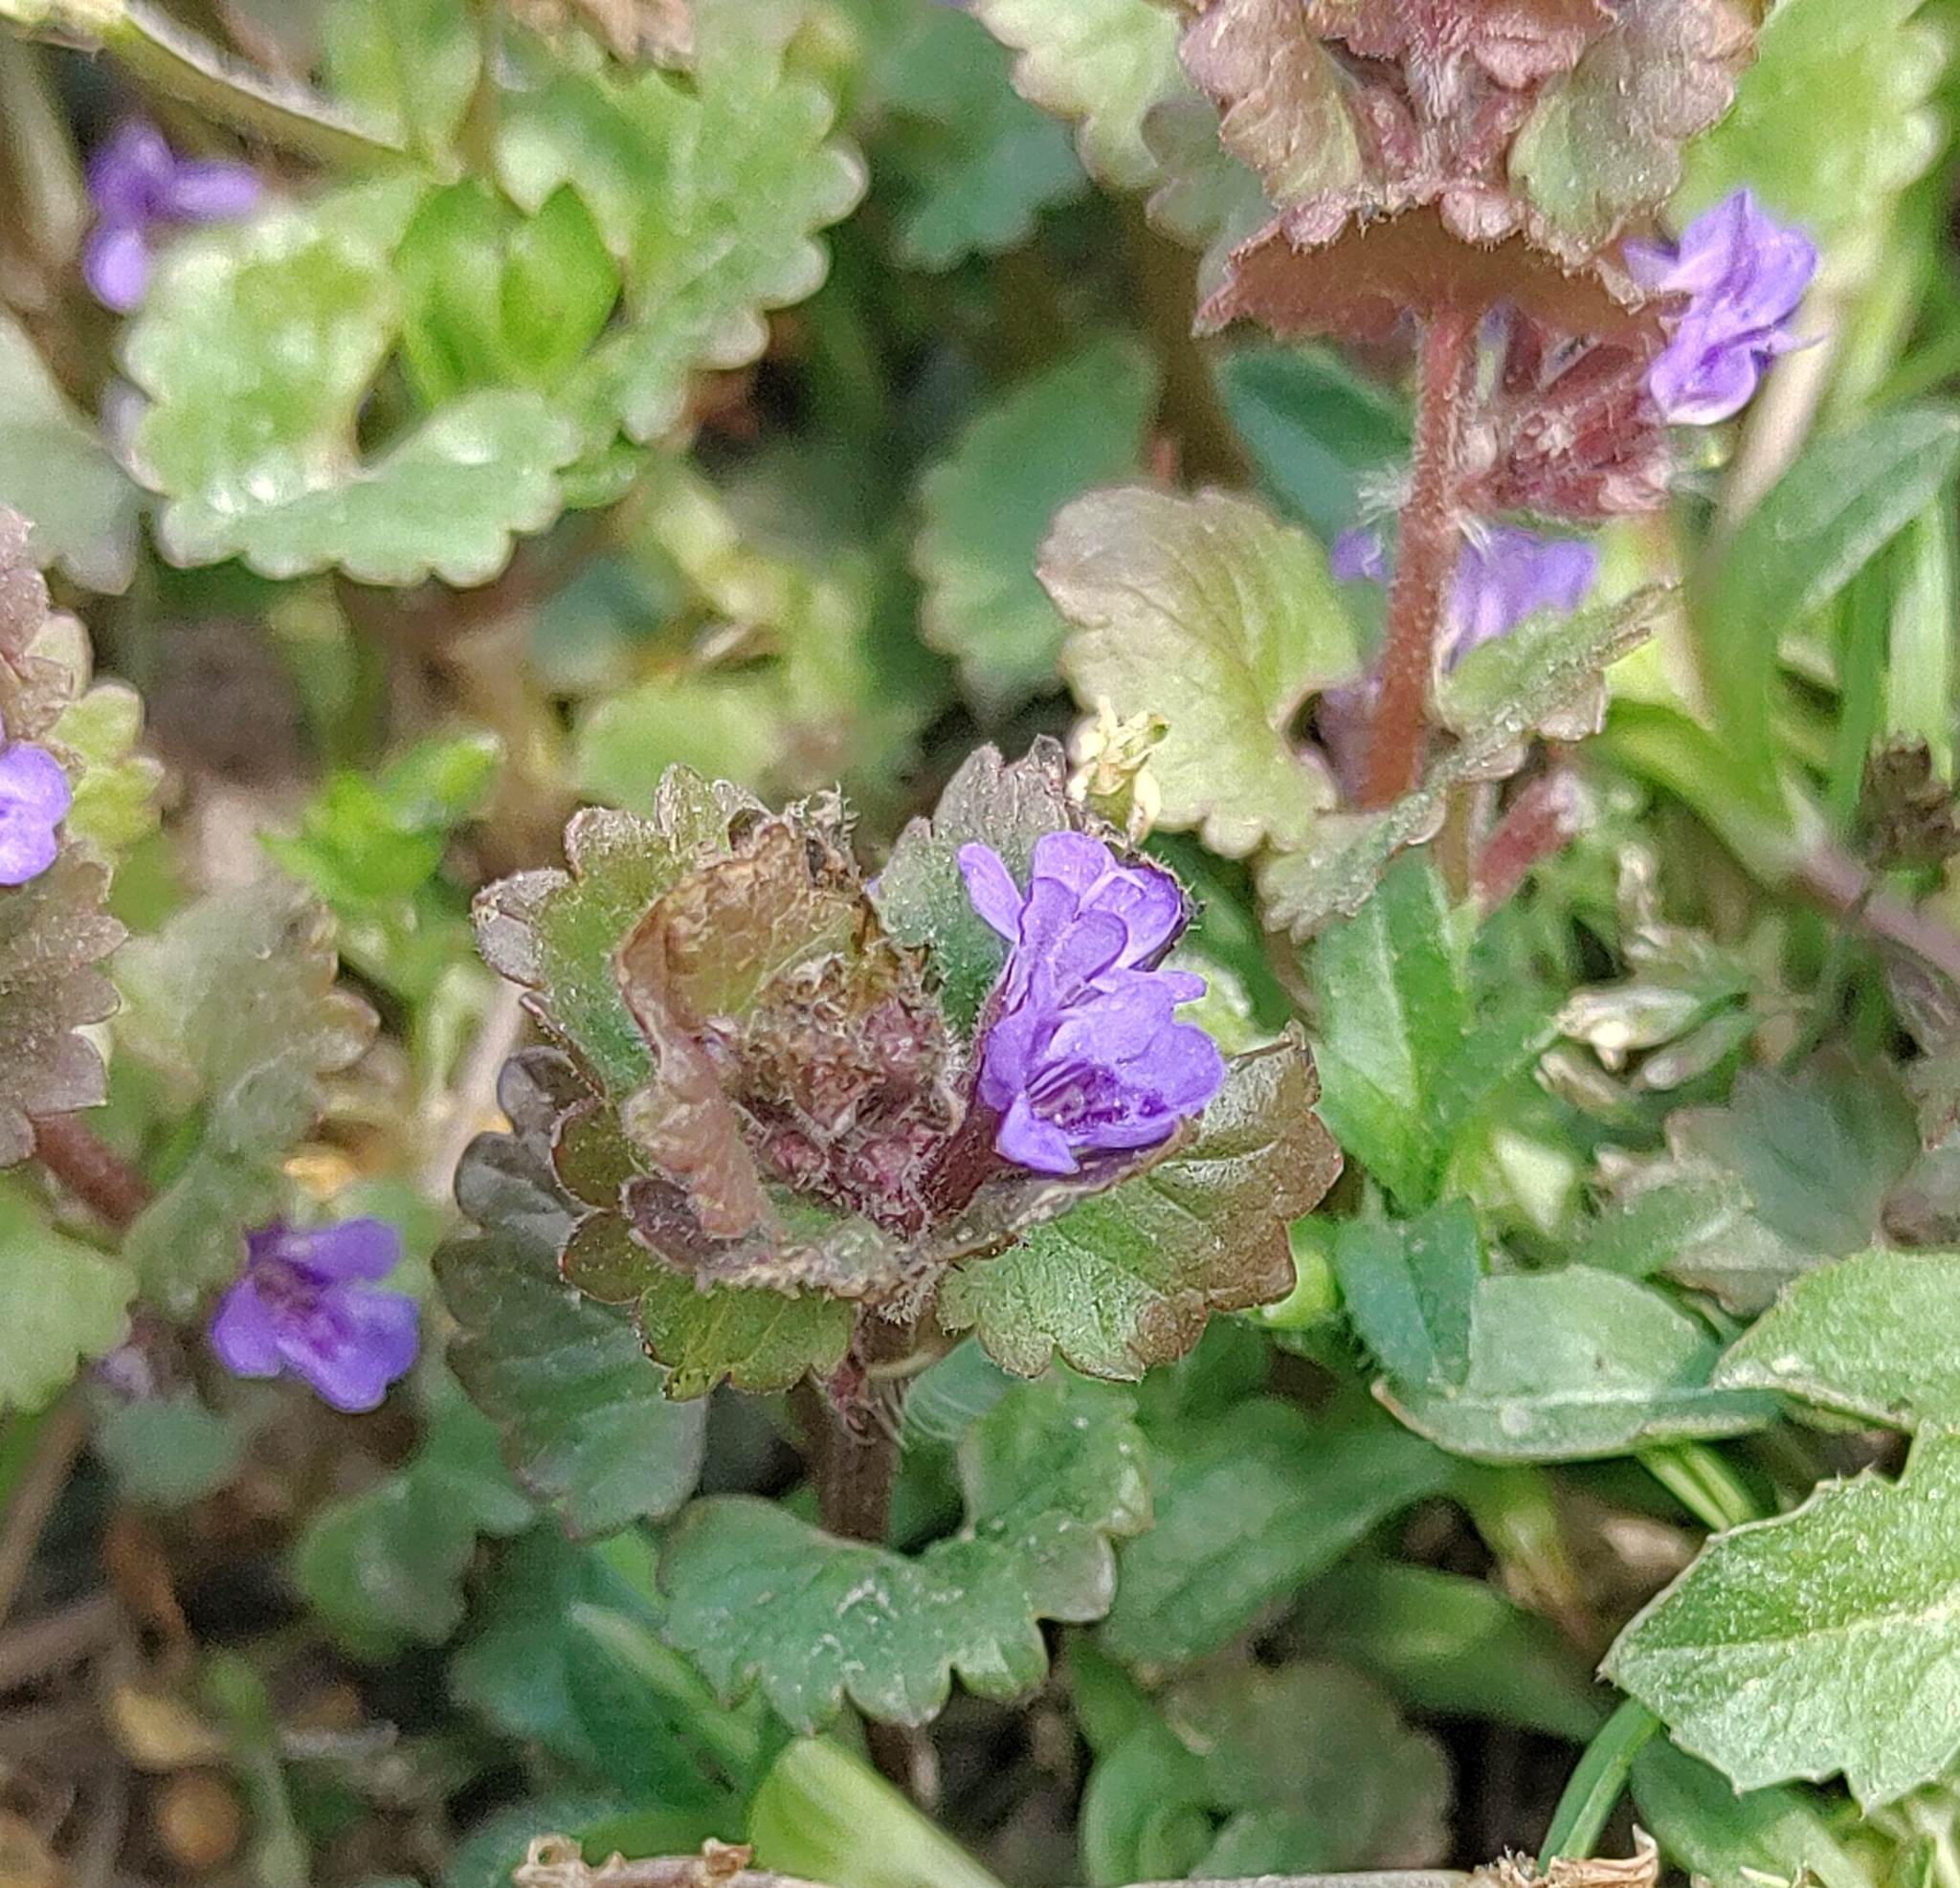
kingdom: Plantae
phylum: Tracheophyta
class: Magnoliopsida
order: Lamiales
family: Lamiaceae
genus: Glechoma
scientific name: Glechoma hederacea
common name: Ground ivy
